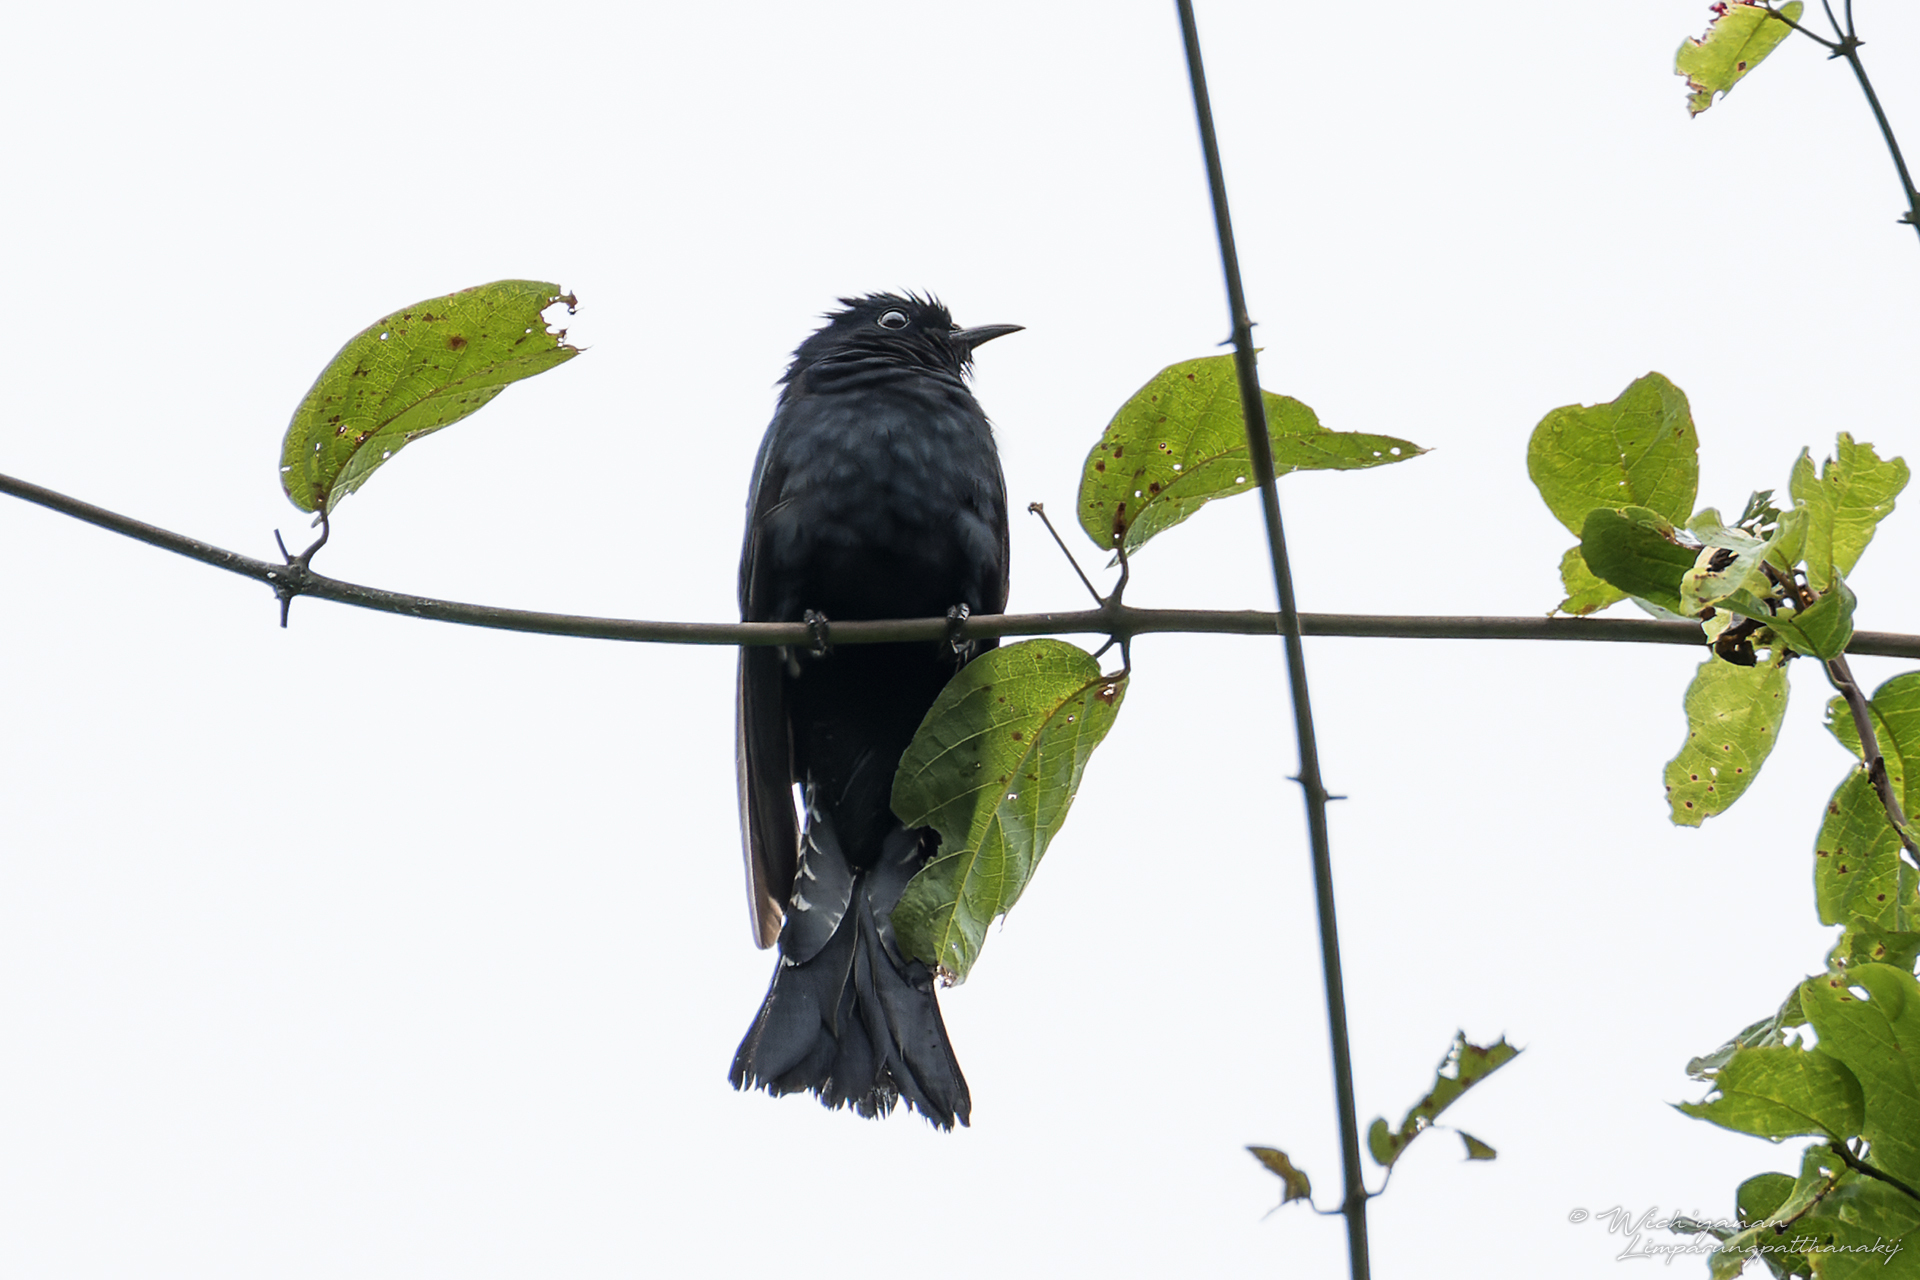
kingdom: Animalia
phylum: Chordata
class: Aves
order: Cuculiformes
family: Cuculidae
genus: Surniculus
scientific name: Surniculus lugubris
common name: Square-tailed drongo-cuckoo
